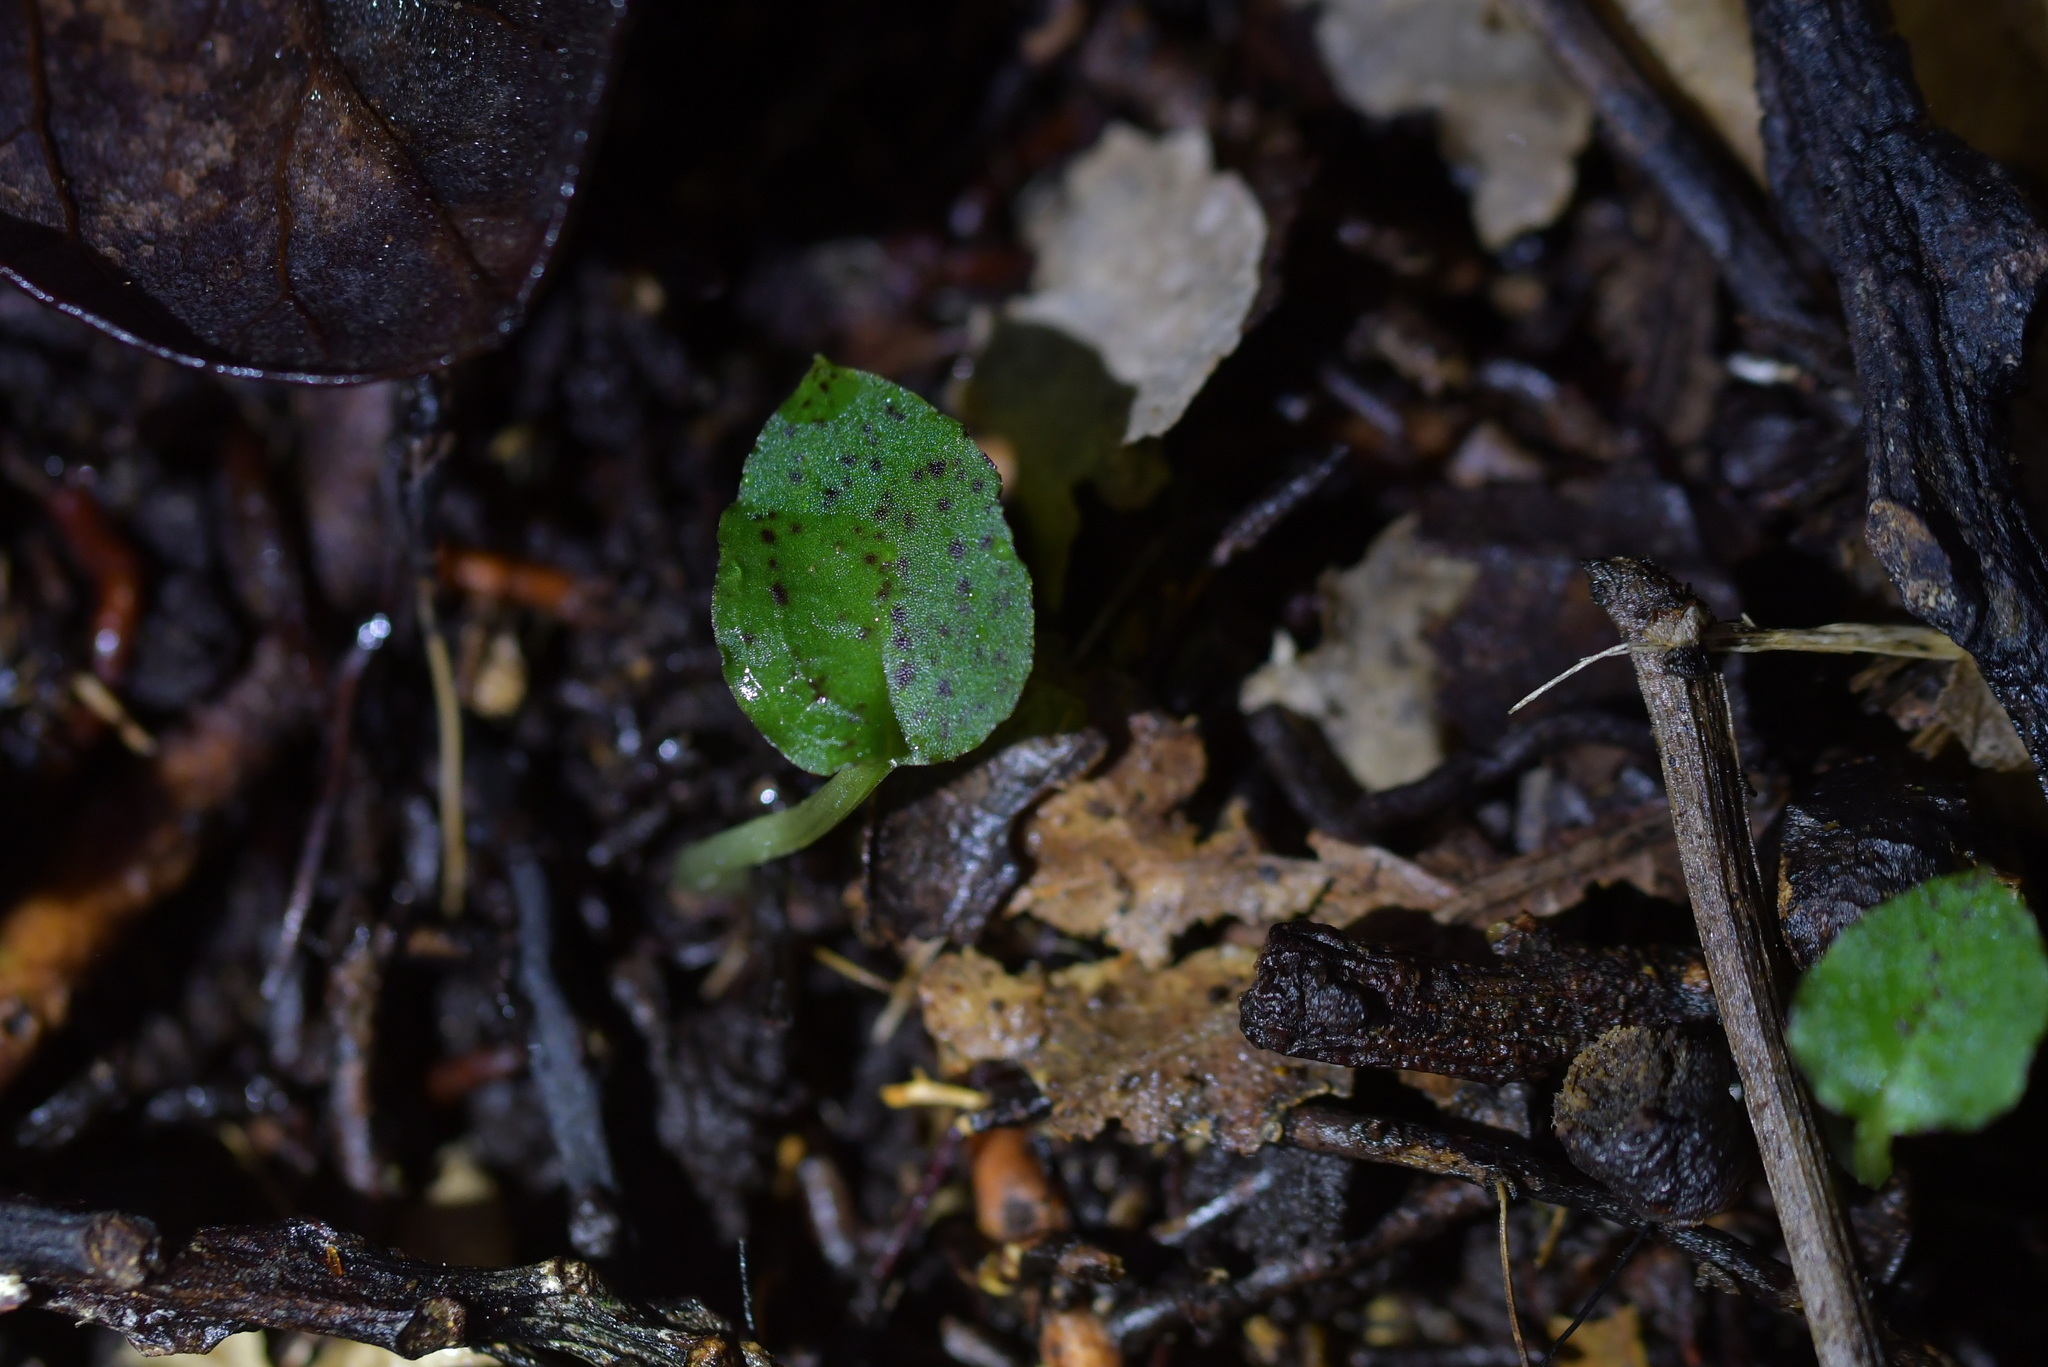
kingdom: Plantae
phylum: Tracheophyta
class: Liliopsida
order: Asparagales
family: Orchidaceae
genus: Corybas
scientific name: Corybas oblongus
